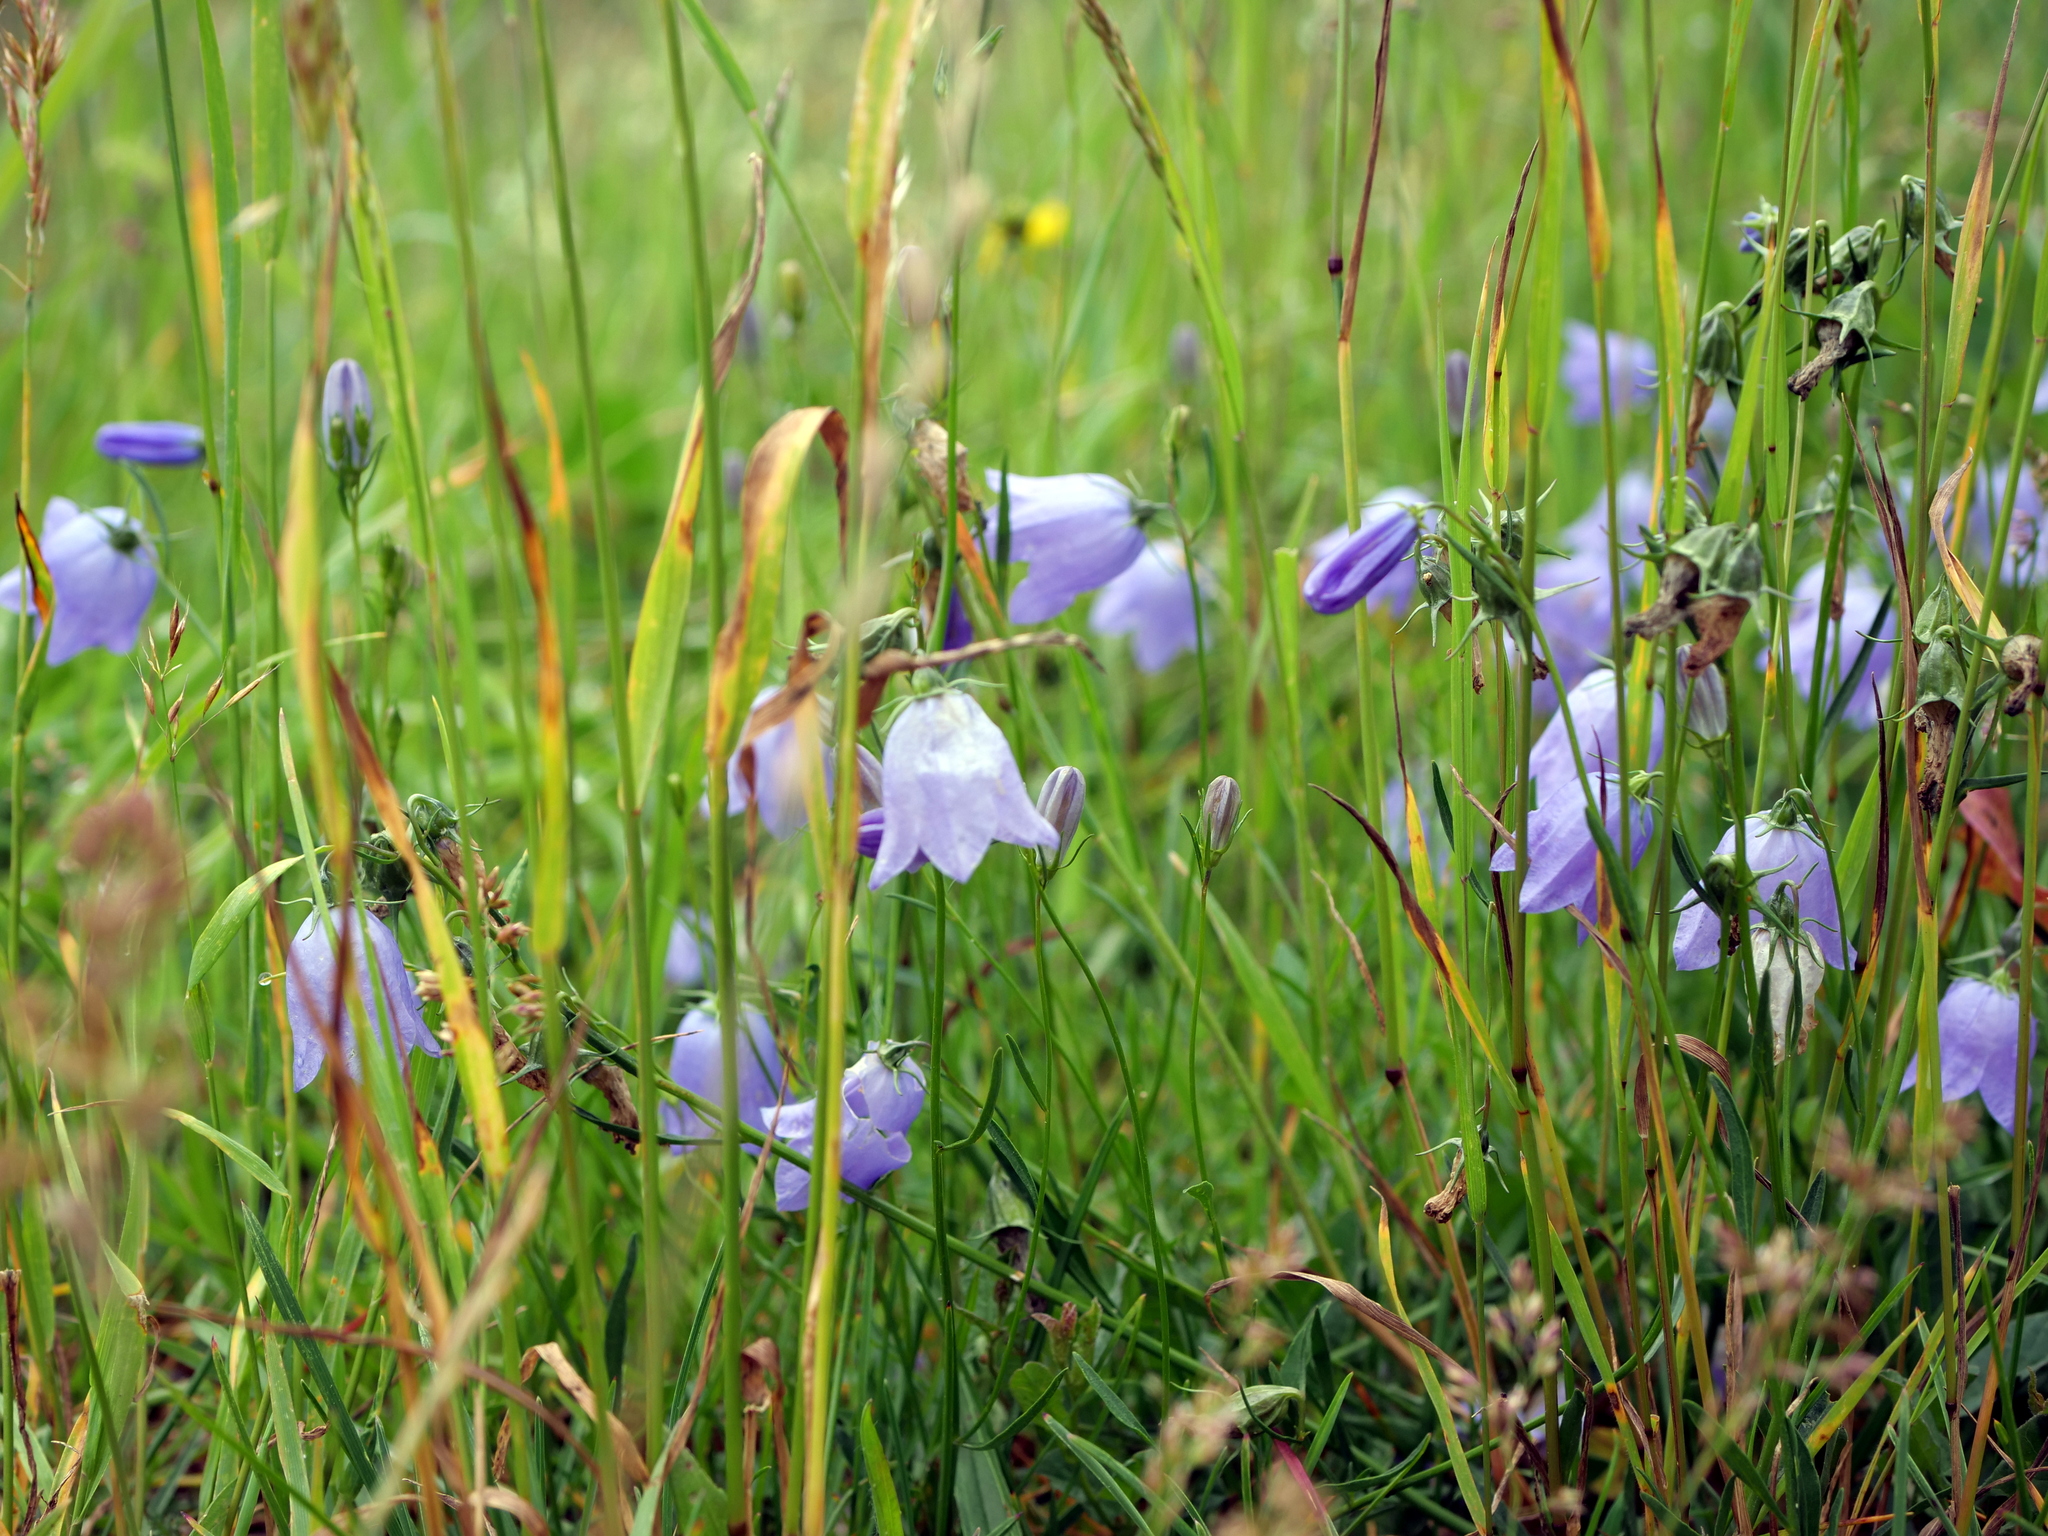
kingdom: Plantae
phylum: Tracheophyta
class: Magnoliopsida
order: Asterales
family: Campanulaceae
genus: Campanula
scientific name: Campanula rotundifolia
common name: Harebell
